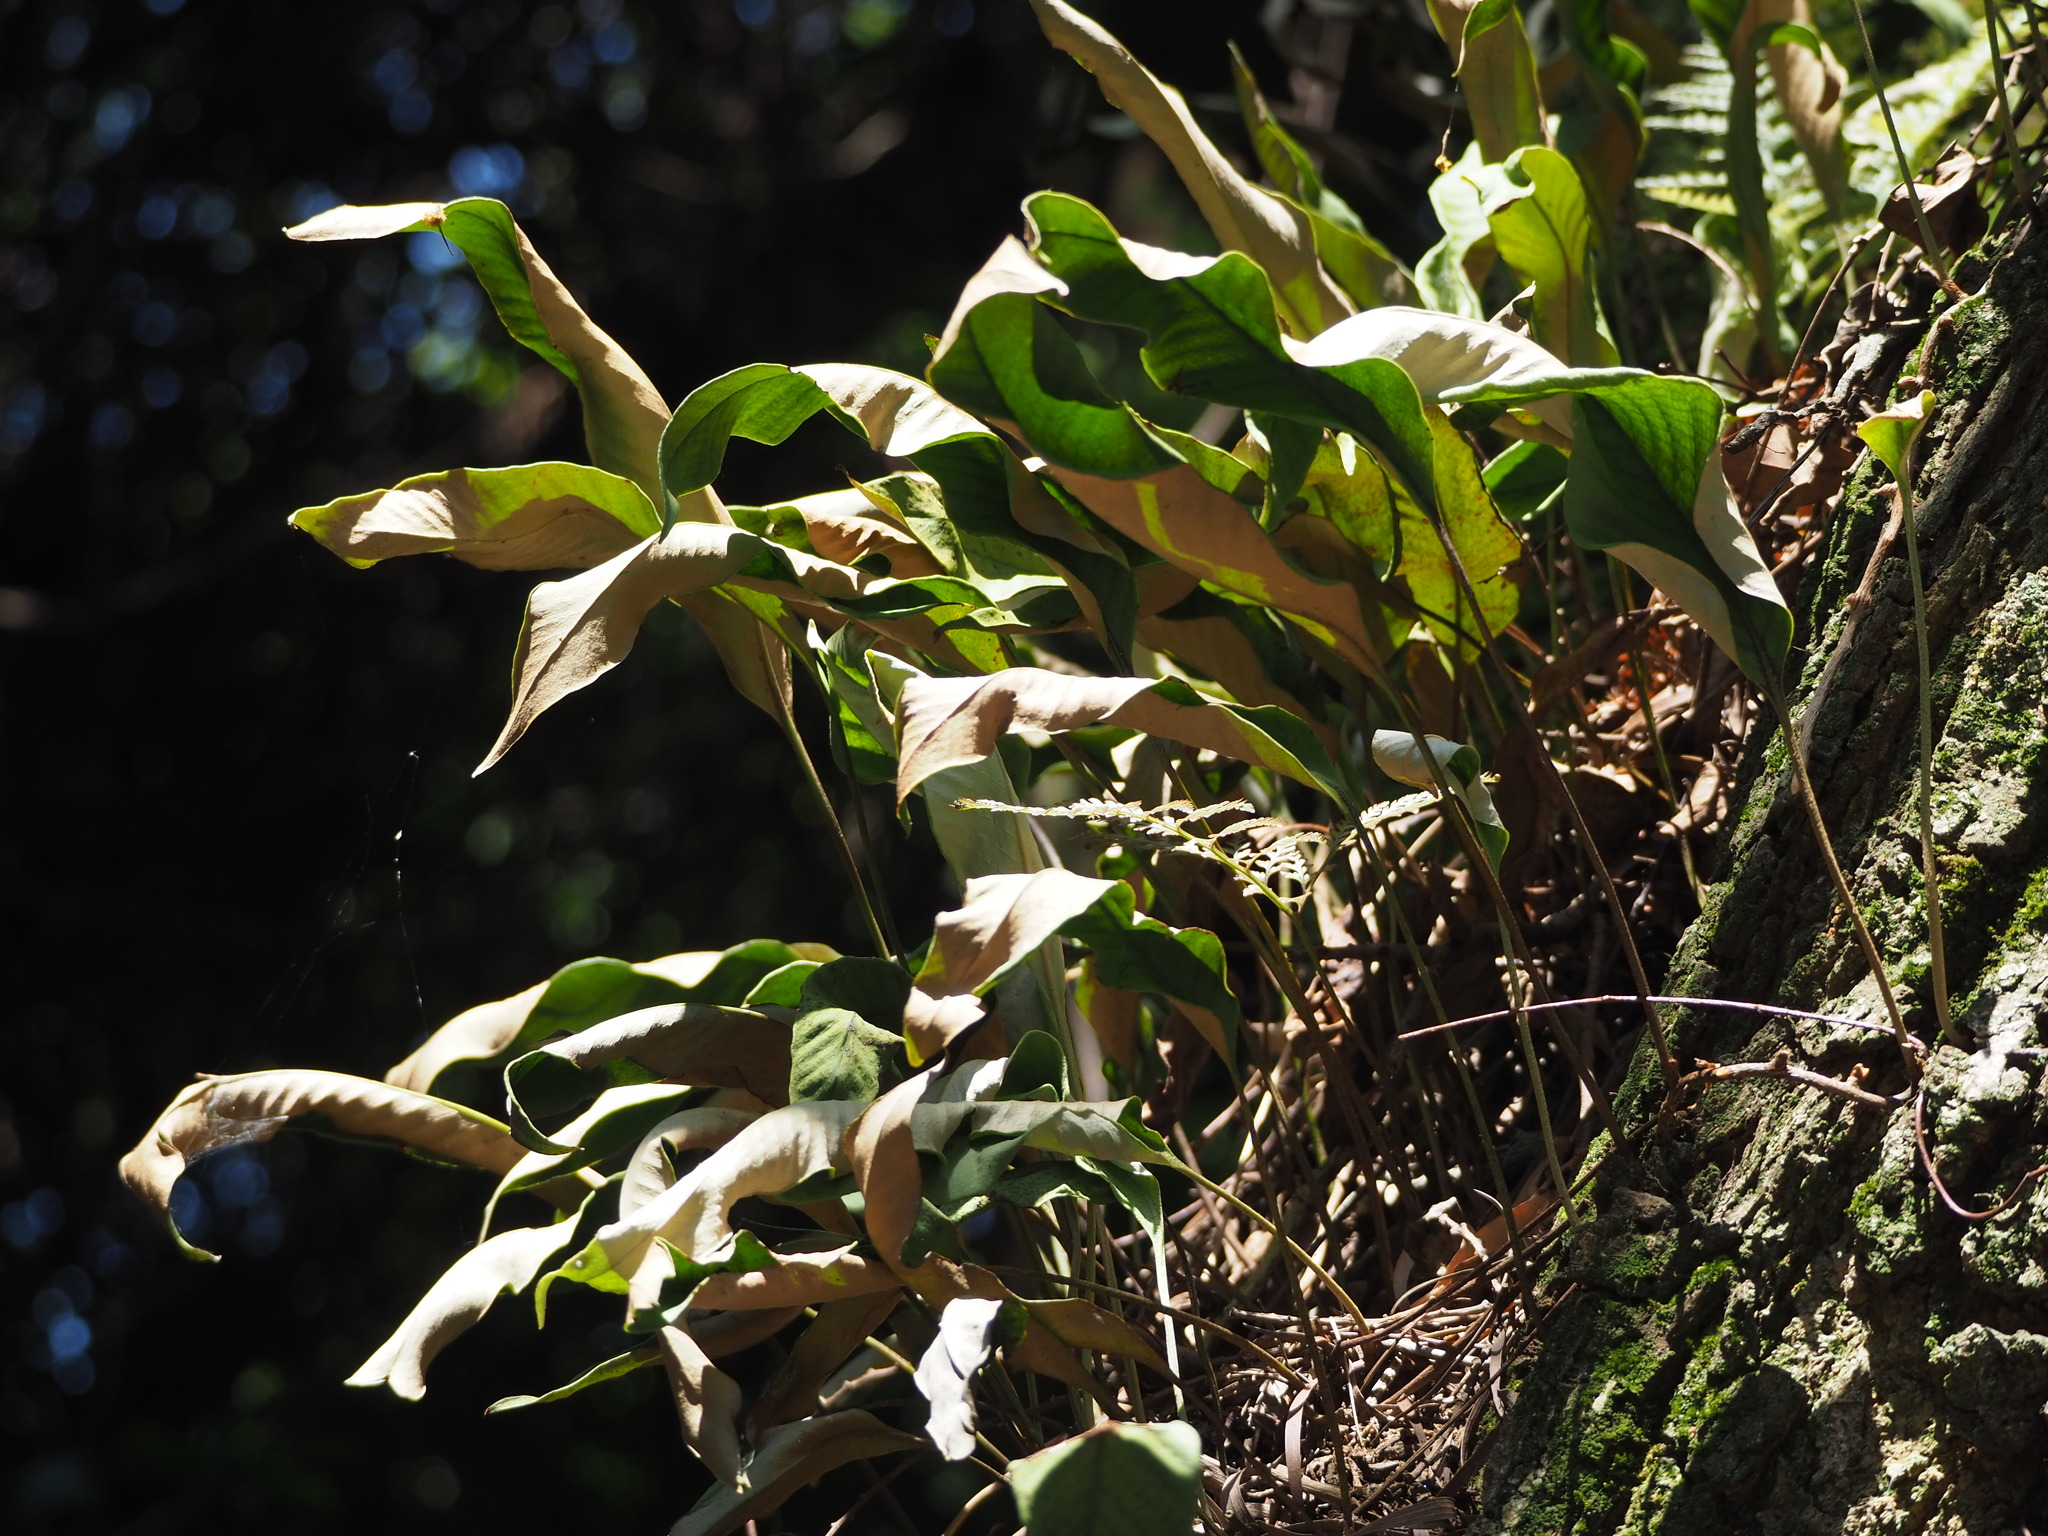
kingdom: Plantae
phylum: Tracheophyta
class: Polypodiopsida
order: Polypodiales
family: Polypodiaceae
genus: Pyrrosia
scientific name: Pyrrosia lingua
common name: Felt fern
